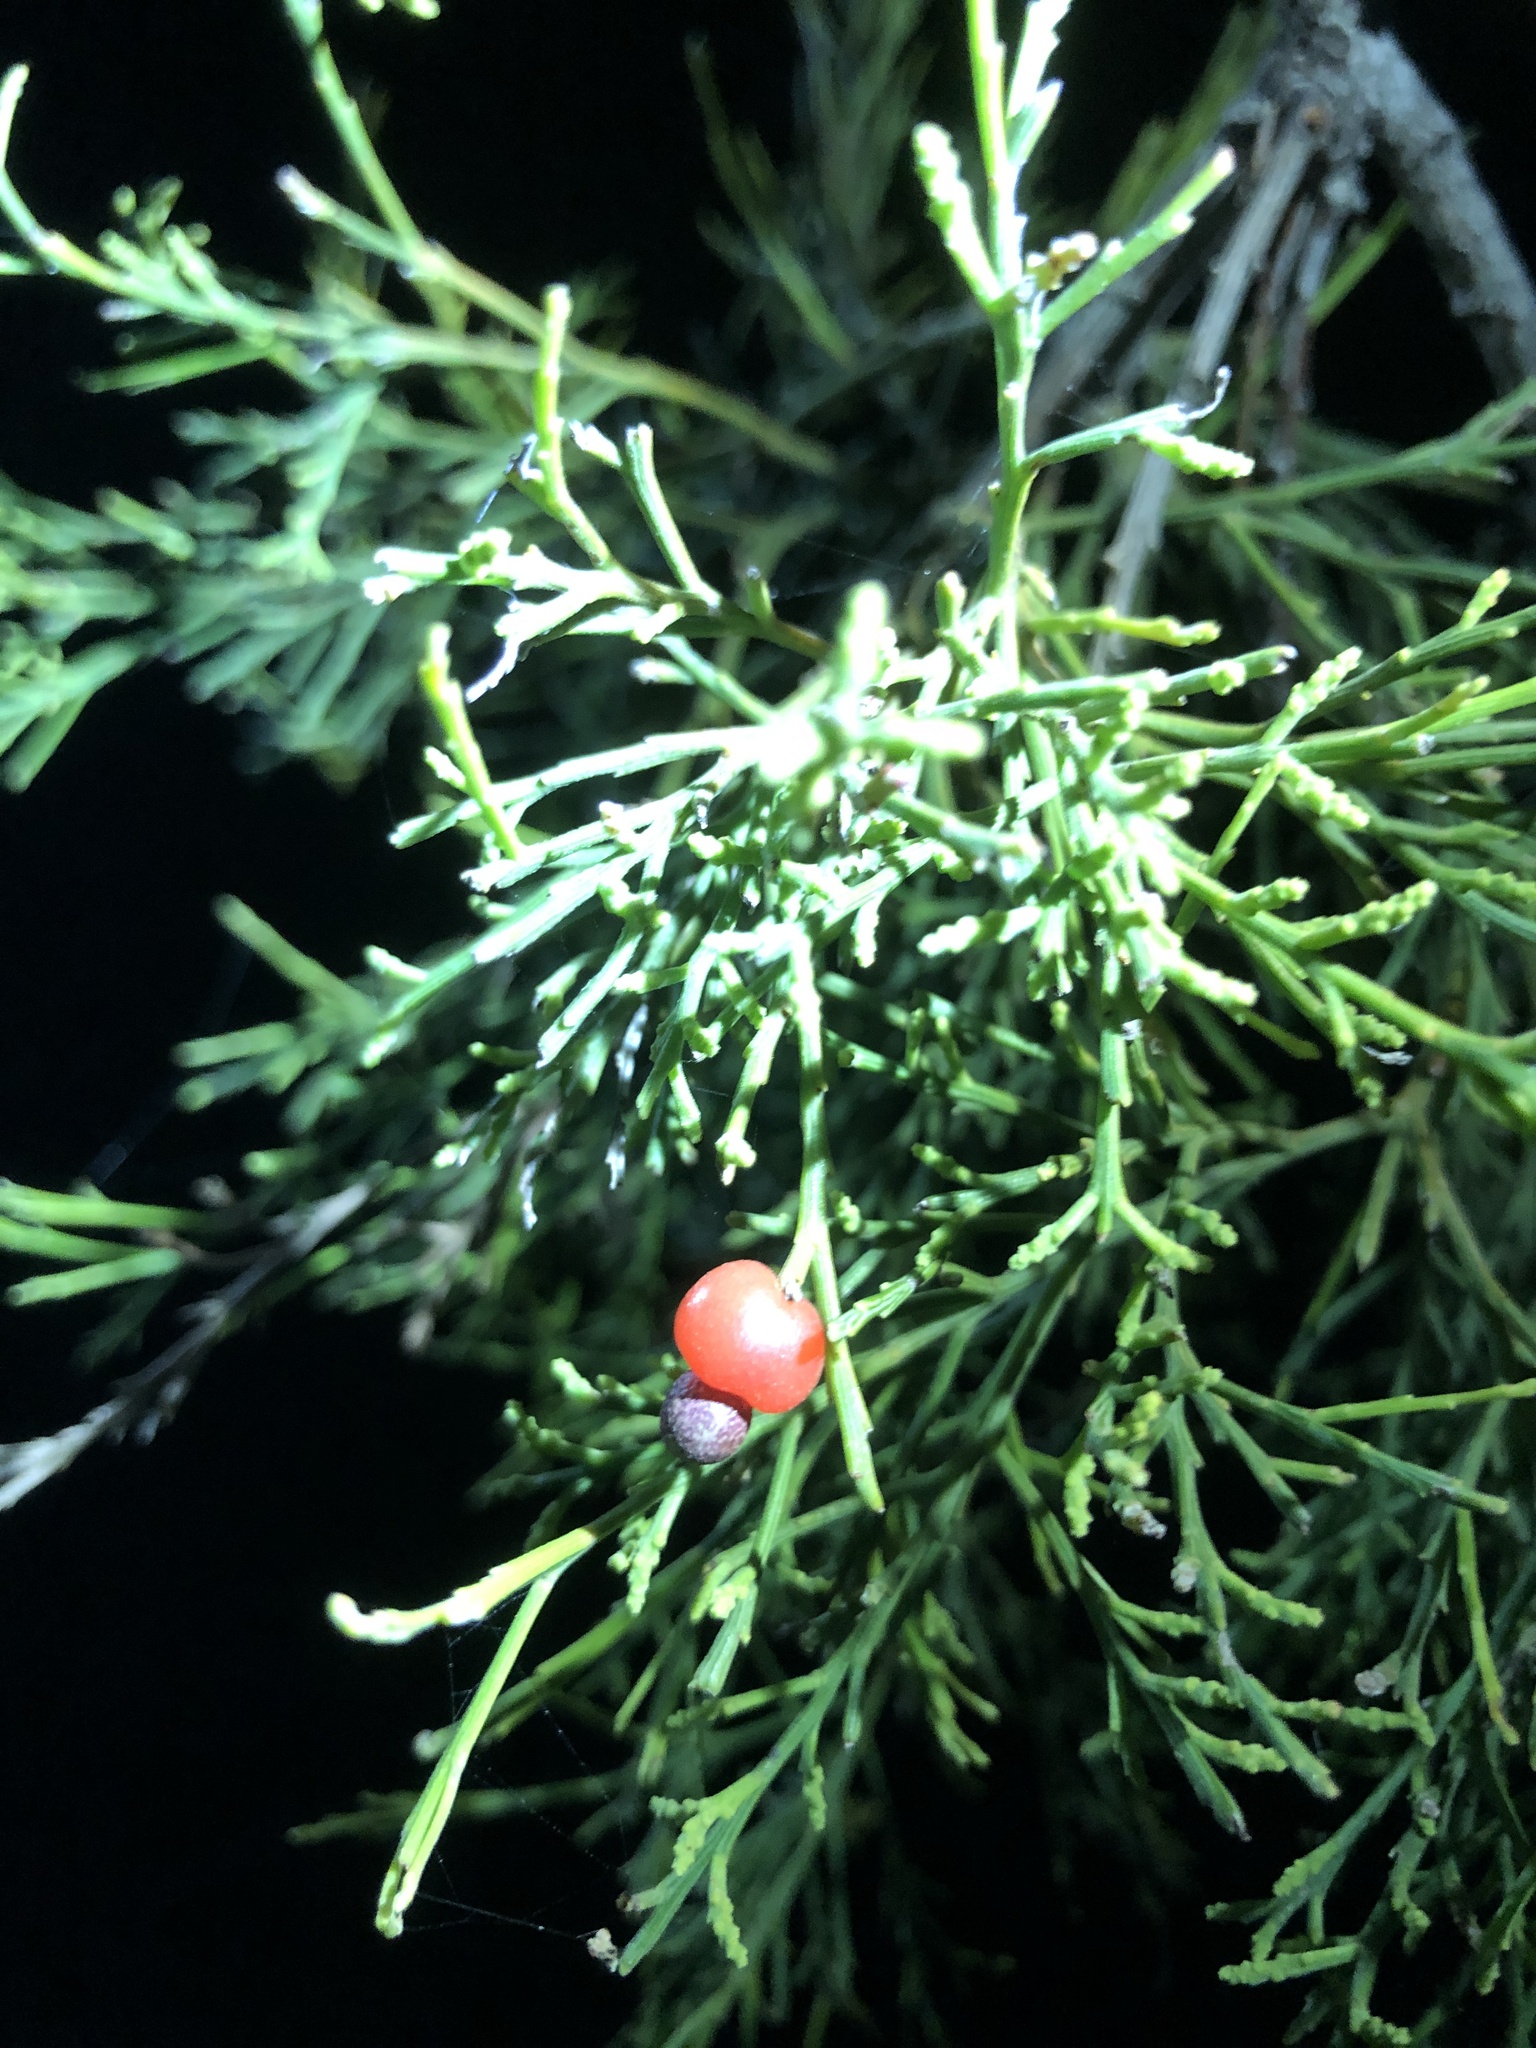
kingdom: Plantae
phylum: Tracheophyta
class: Magnoliopsida
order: Santalales
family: Santalaceae
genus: Exocarpos
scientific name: Exocarpos cupressiformis
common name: Cherry ballart
